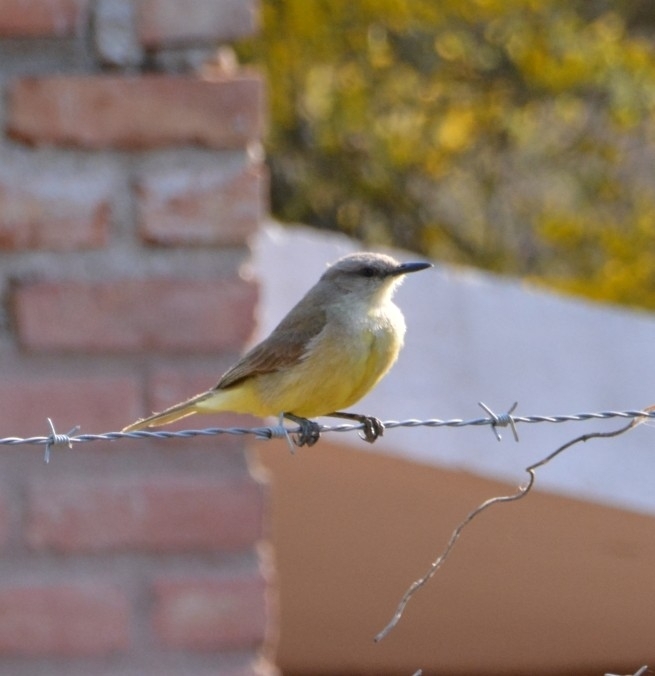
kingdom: Animalia
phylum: Chordata
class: Aves
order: Passeriformes
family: Tyrannidae
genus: Machetornis
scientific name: Machetornis rixosa
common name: Cattle tyrant
